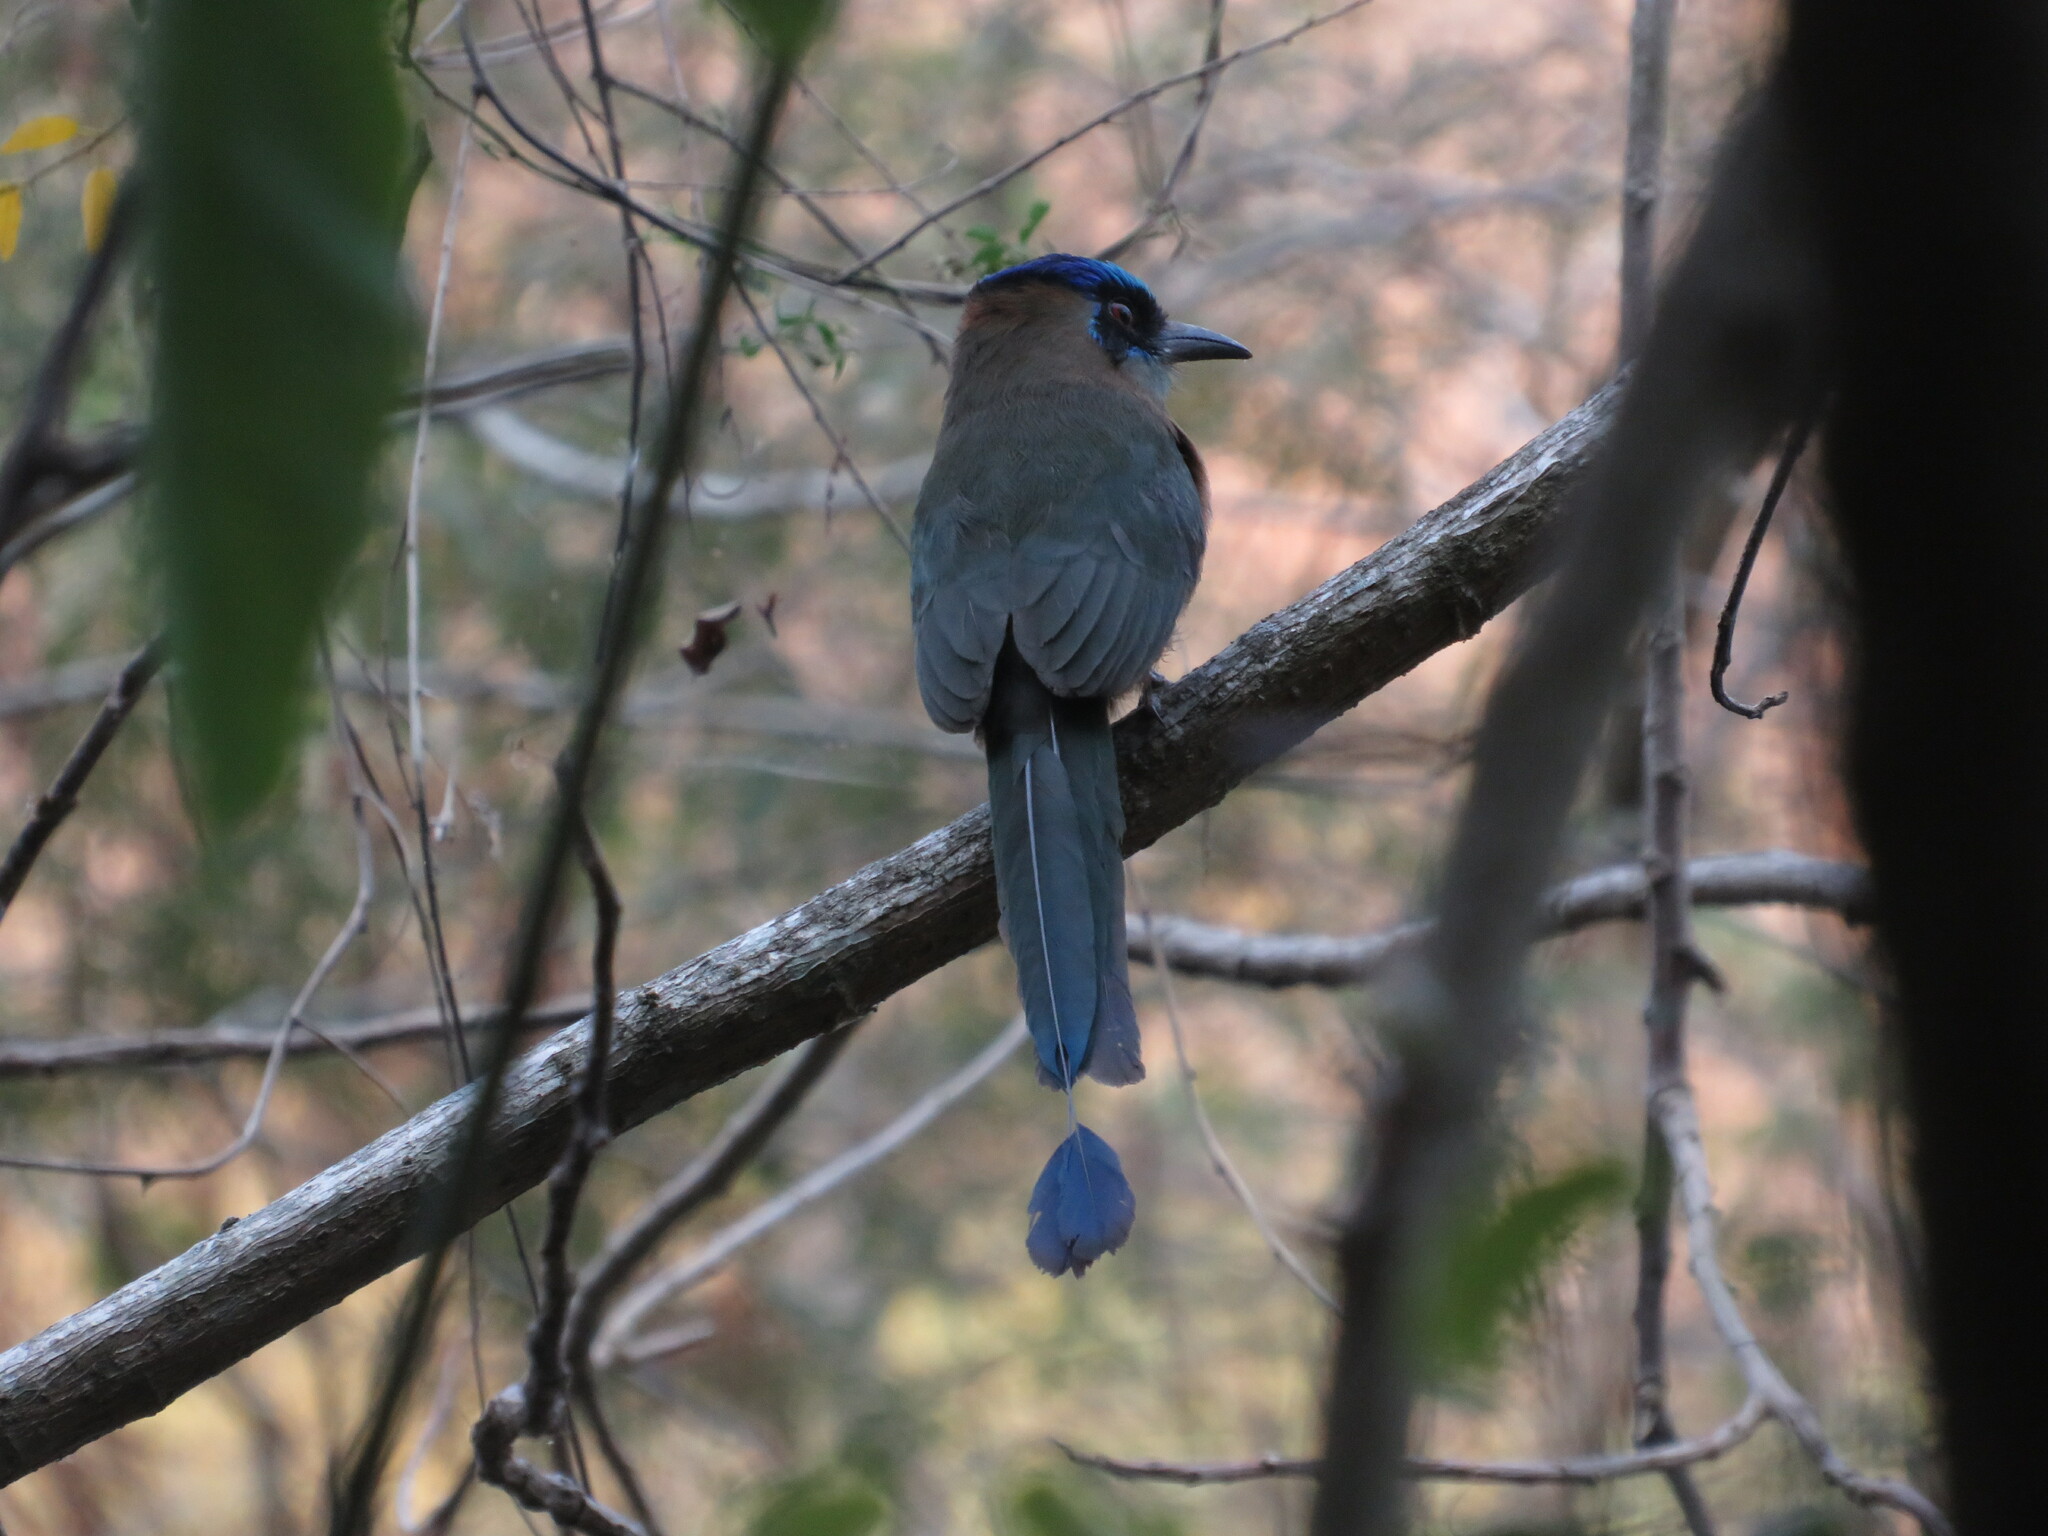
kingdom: Animalia
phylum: Chordata
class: Aves
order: Coraciiformes
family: Momotidae
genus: Momotus
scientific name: Momotus momota
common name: Amazonian motmot
